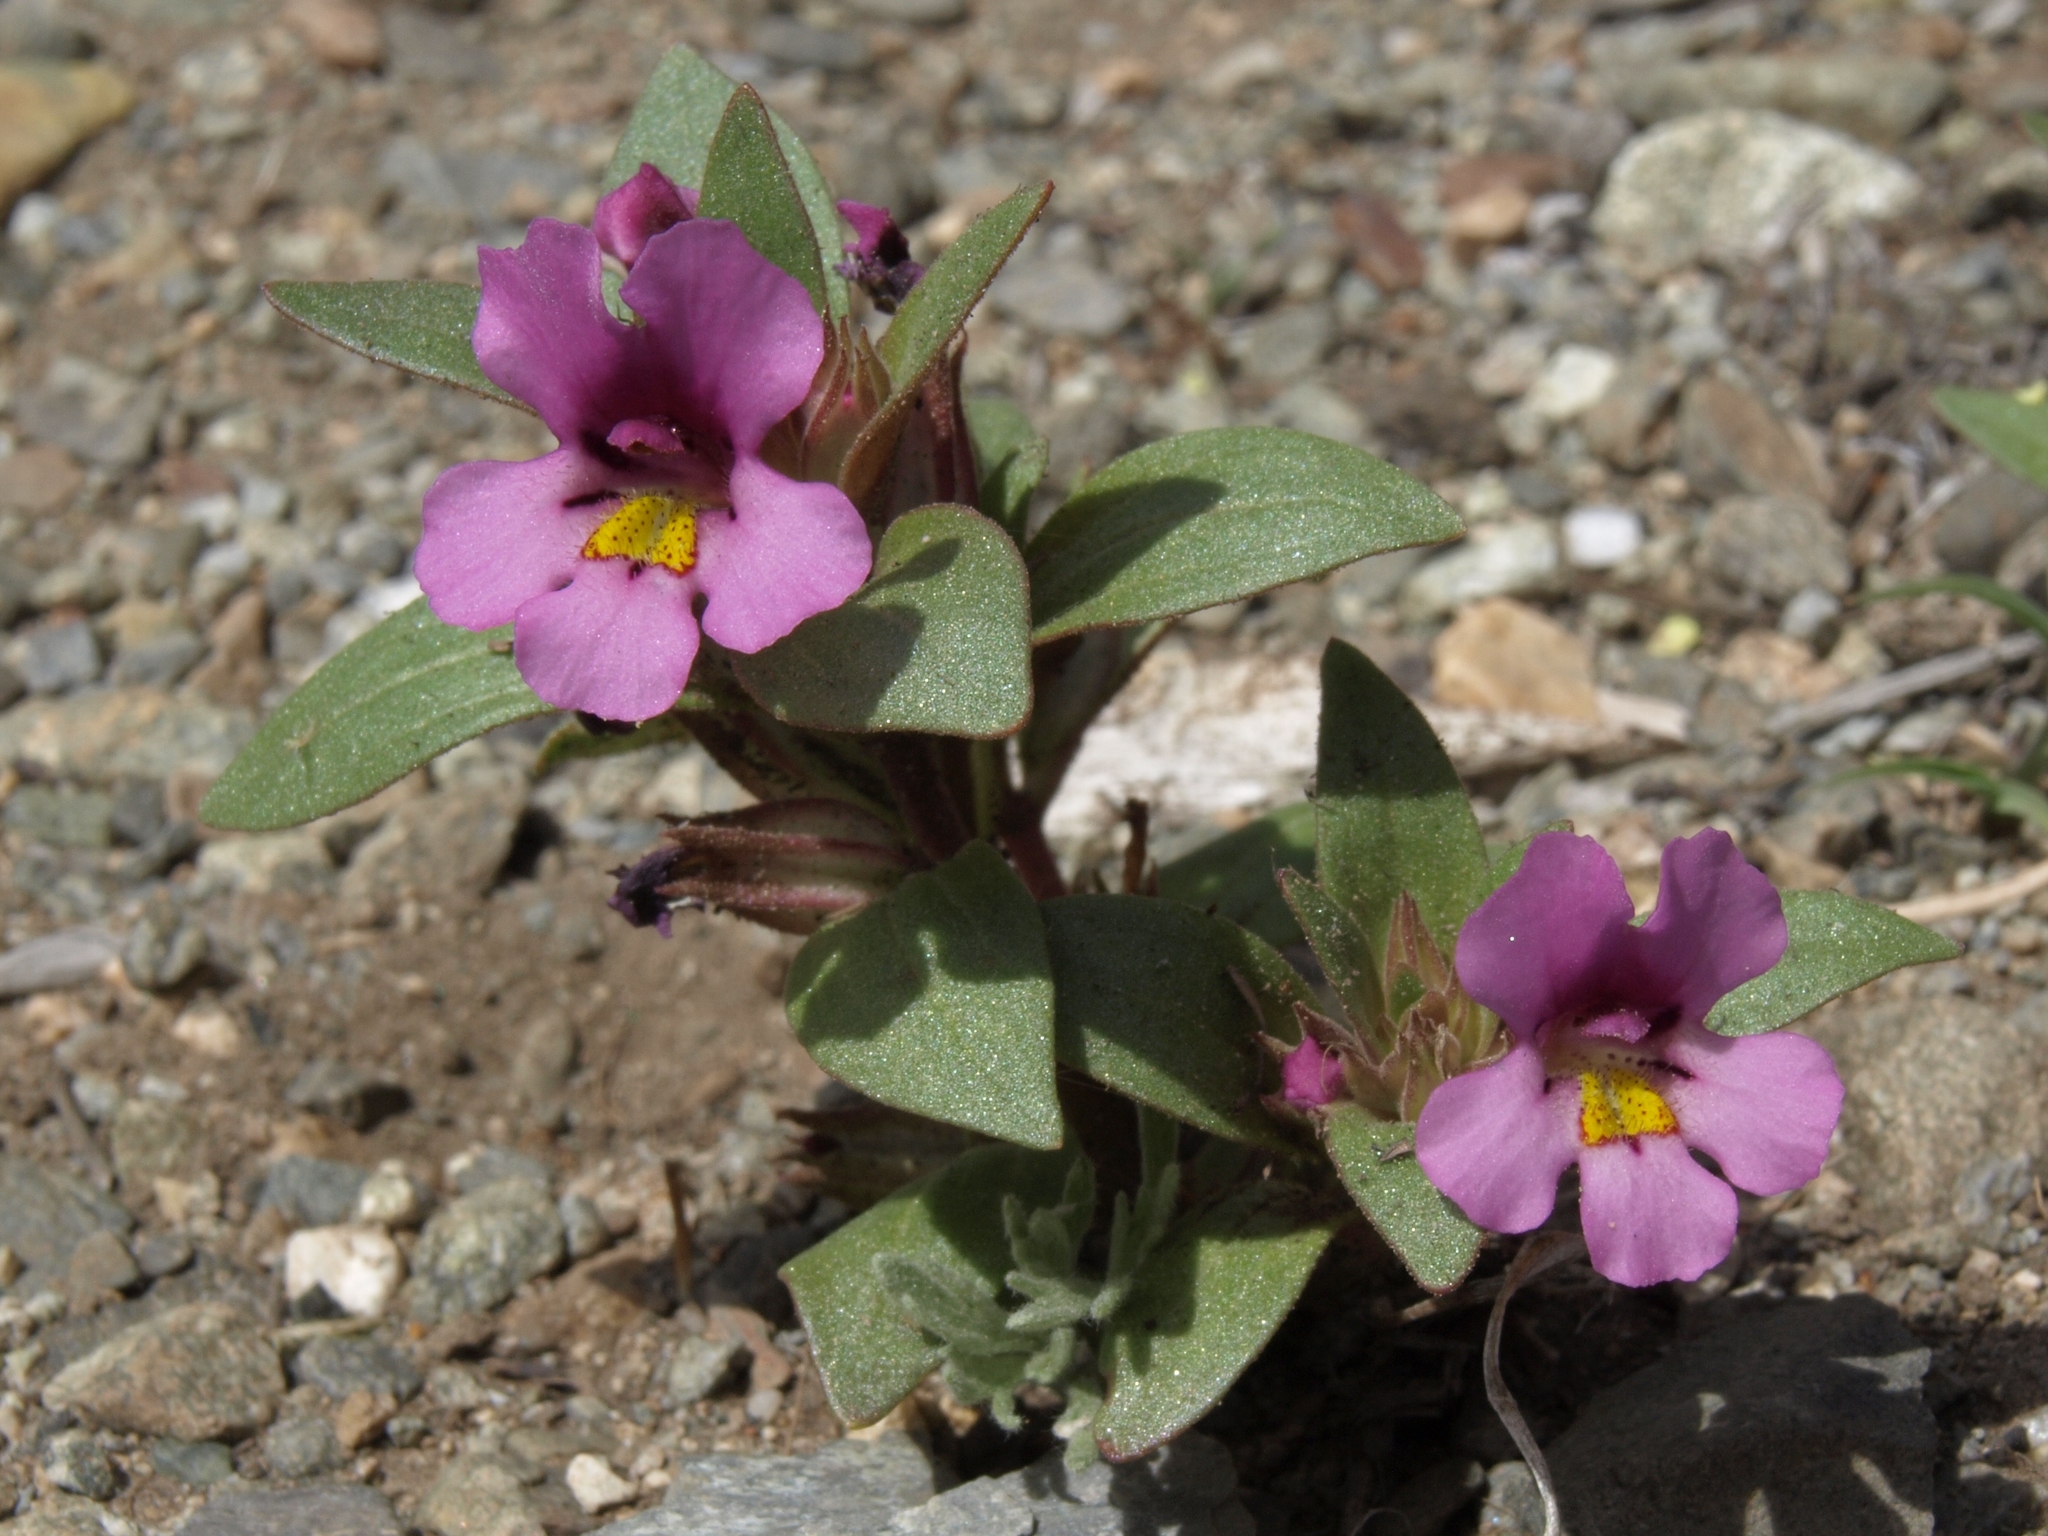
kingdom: Plantae
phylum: Tracheophyta
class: Magnoliopsida
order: Lamiales
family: Phrymaceae
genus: Diplacus
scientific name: Diplacus ovatus
